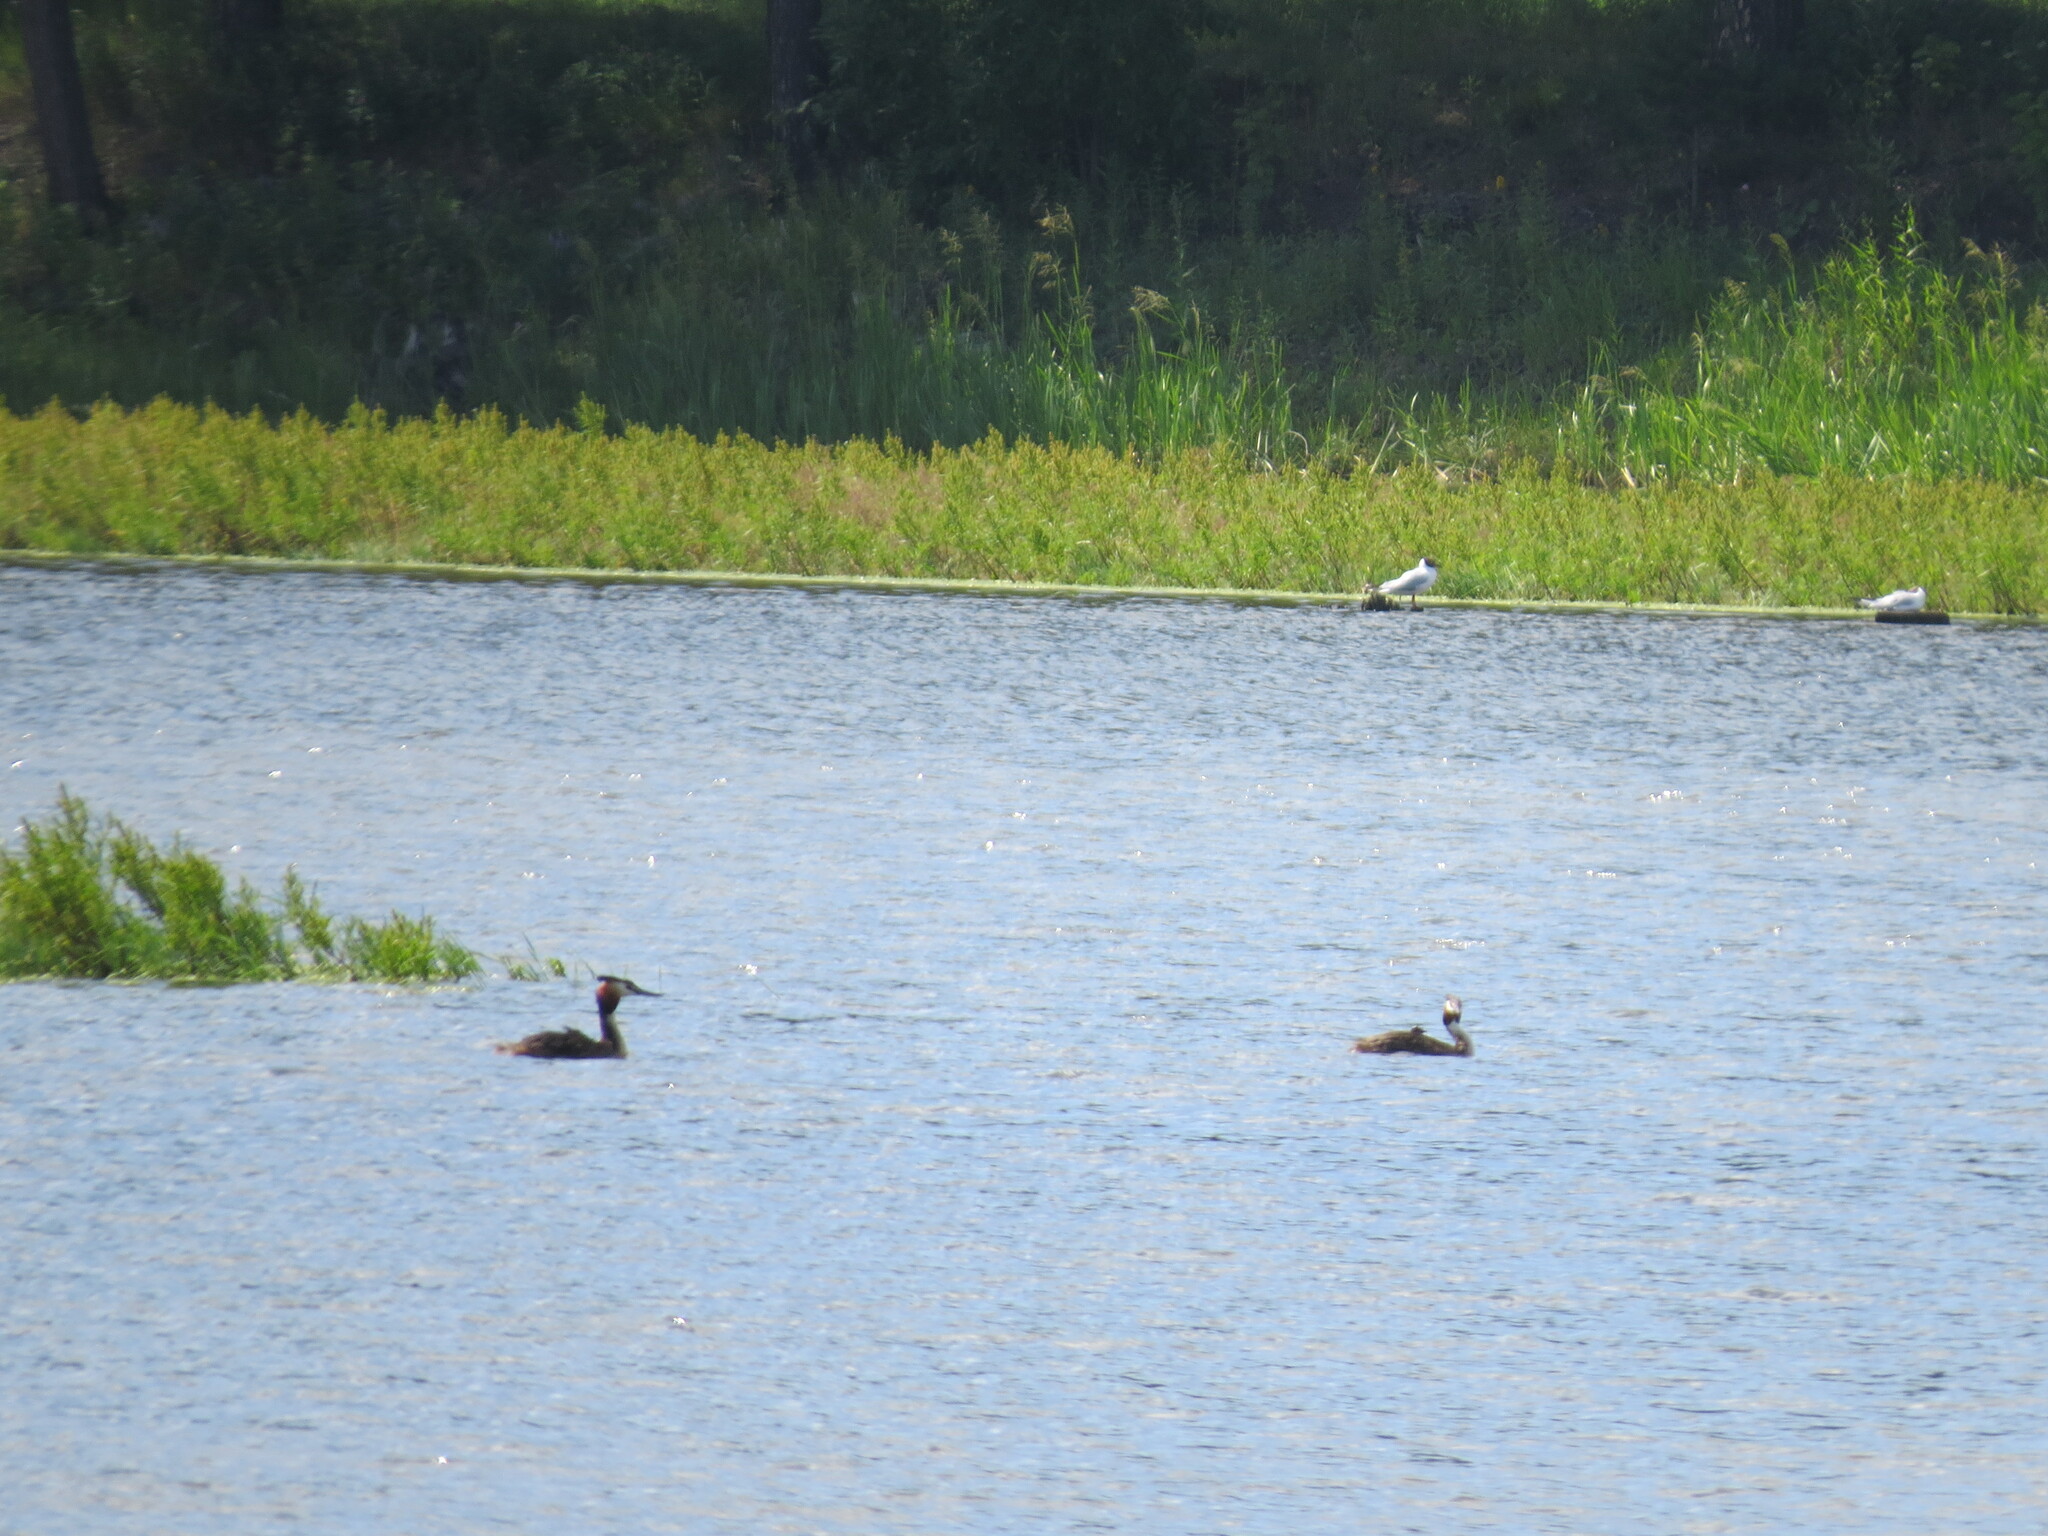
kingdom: Animalia
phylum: Chordata
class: Aves
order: Podicipediformes
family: Podicipedidae
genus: Podiceps
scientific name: Podiceps cristatus
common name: Great crested grebe
